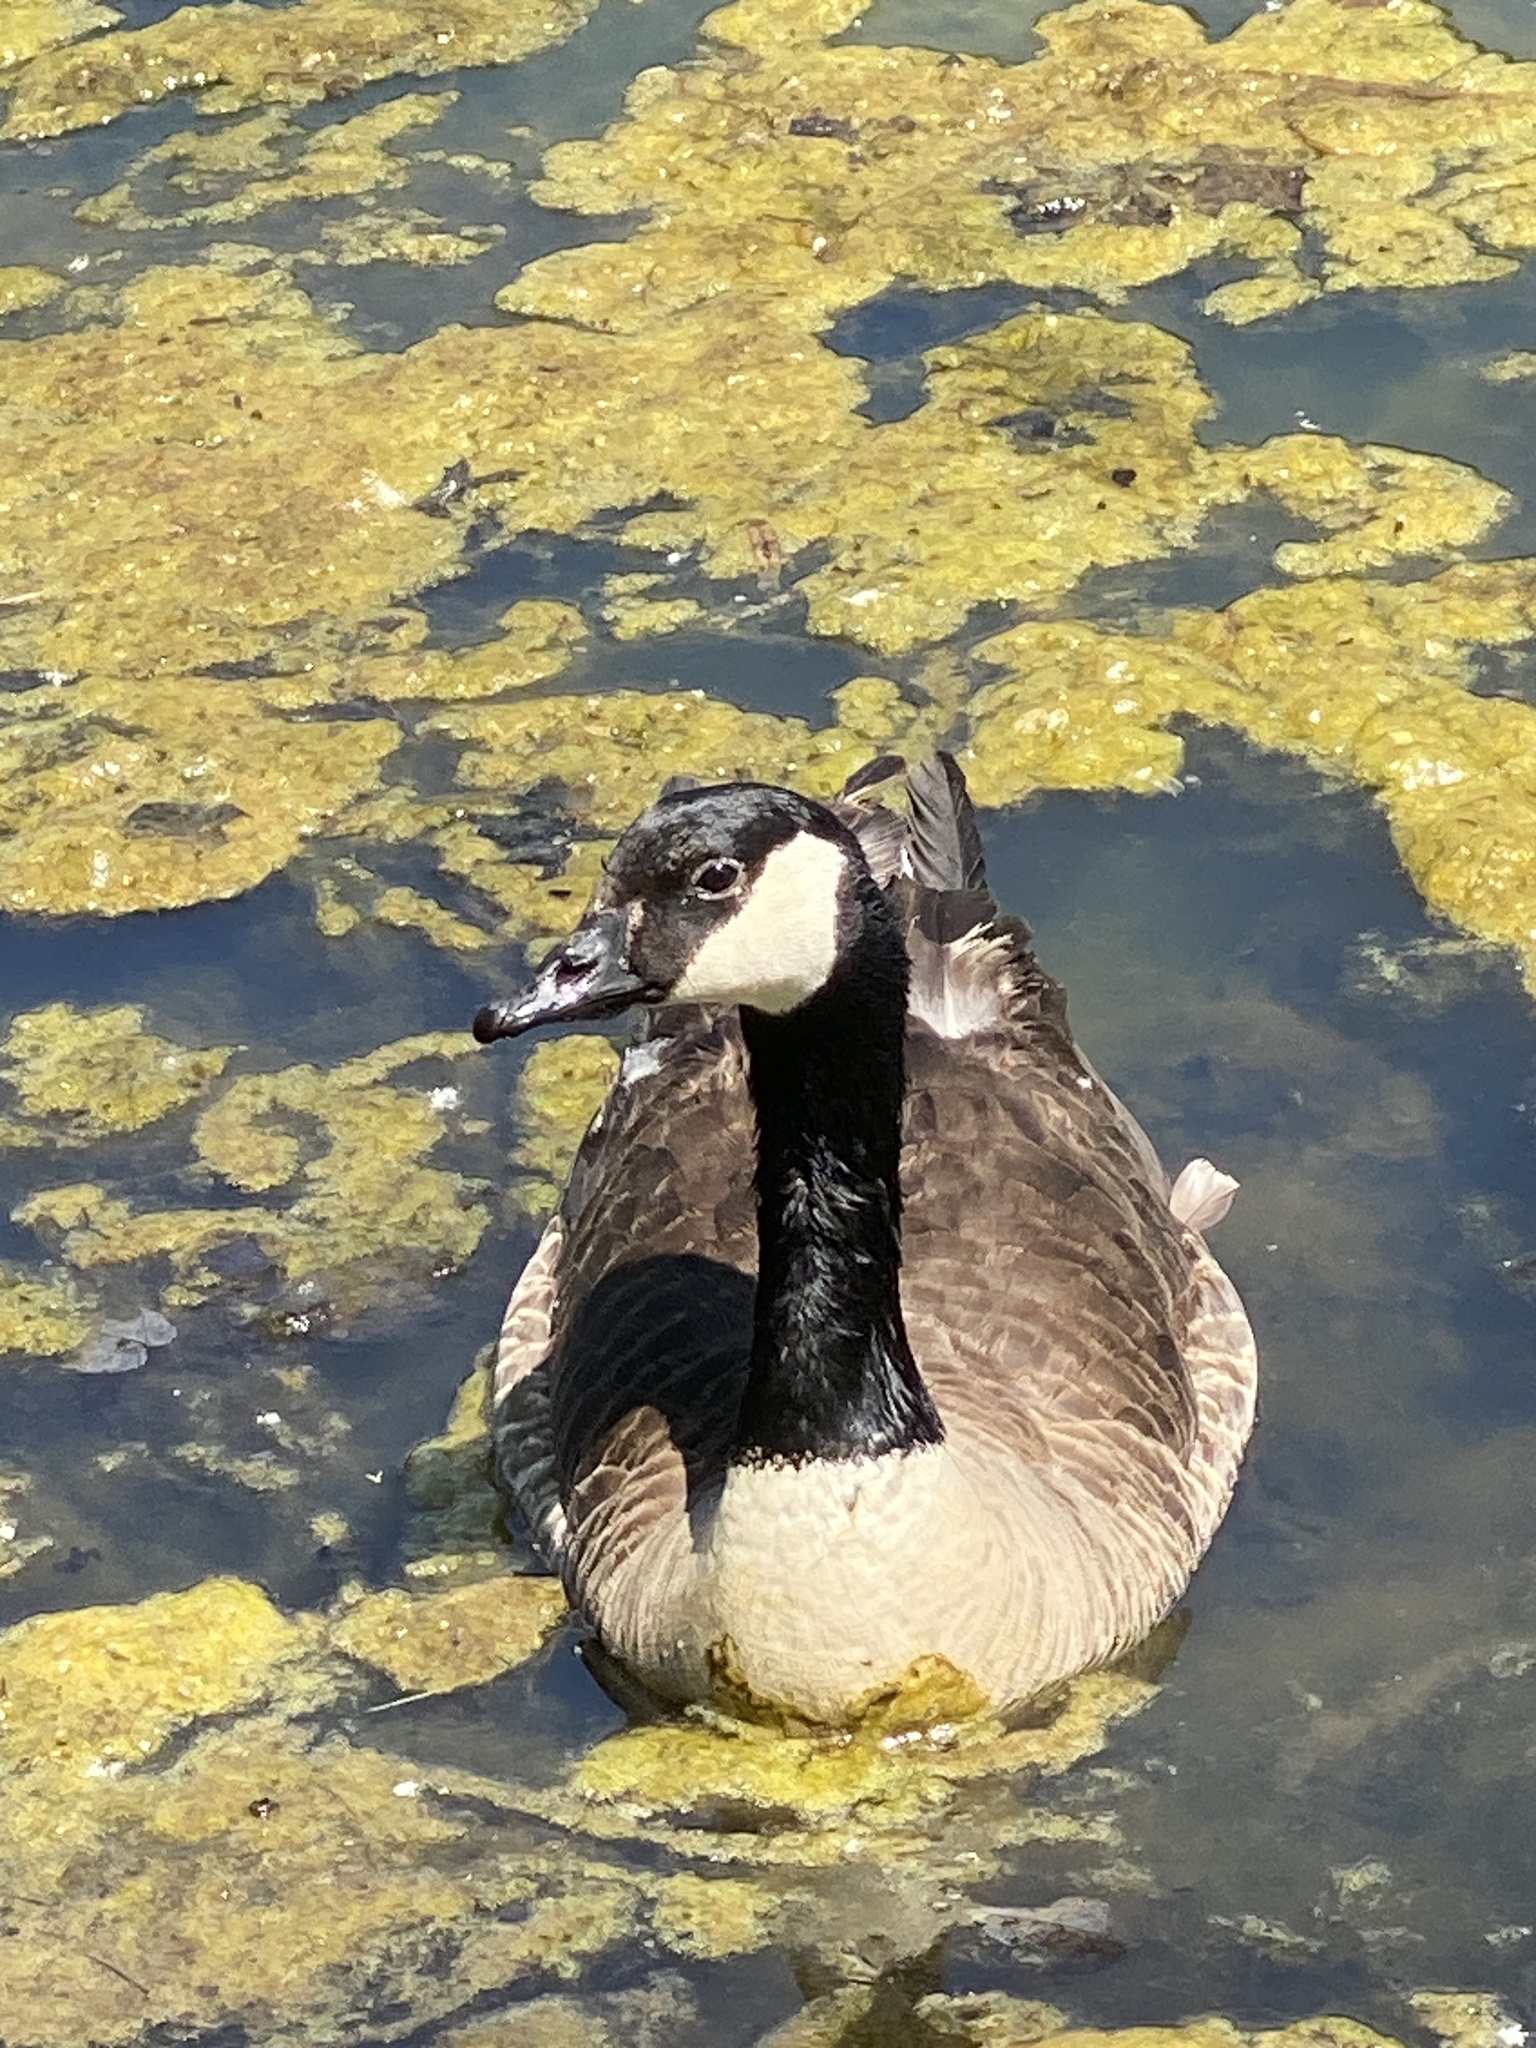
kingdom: Animalia
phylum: Chordata
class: Aves
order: Anseriformes
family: Anatidae
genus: Branta
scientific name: Branta canadensis
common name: Canada goose
